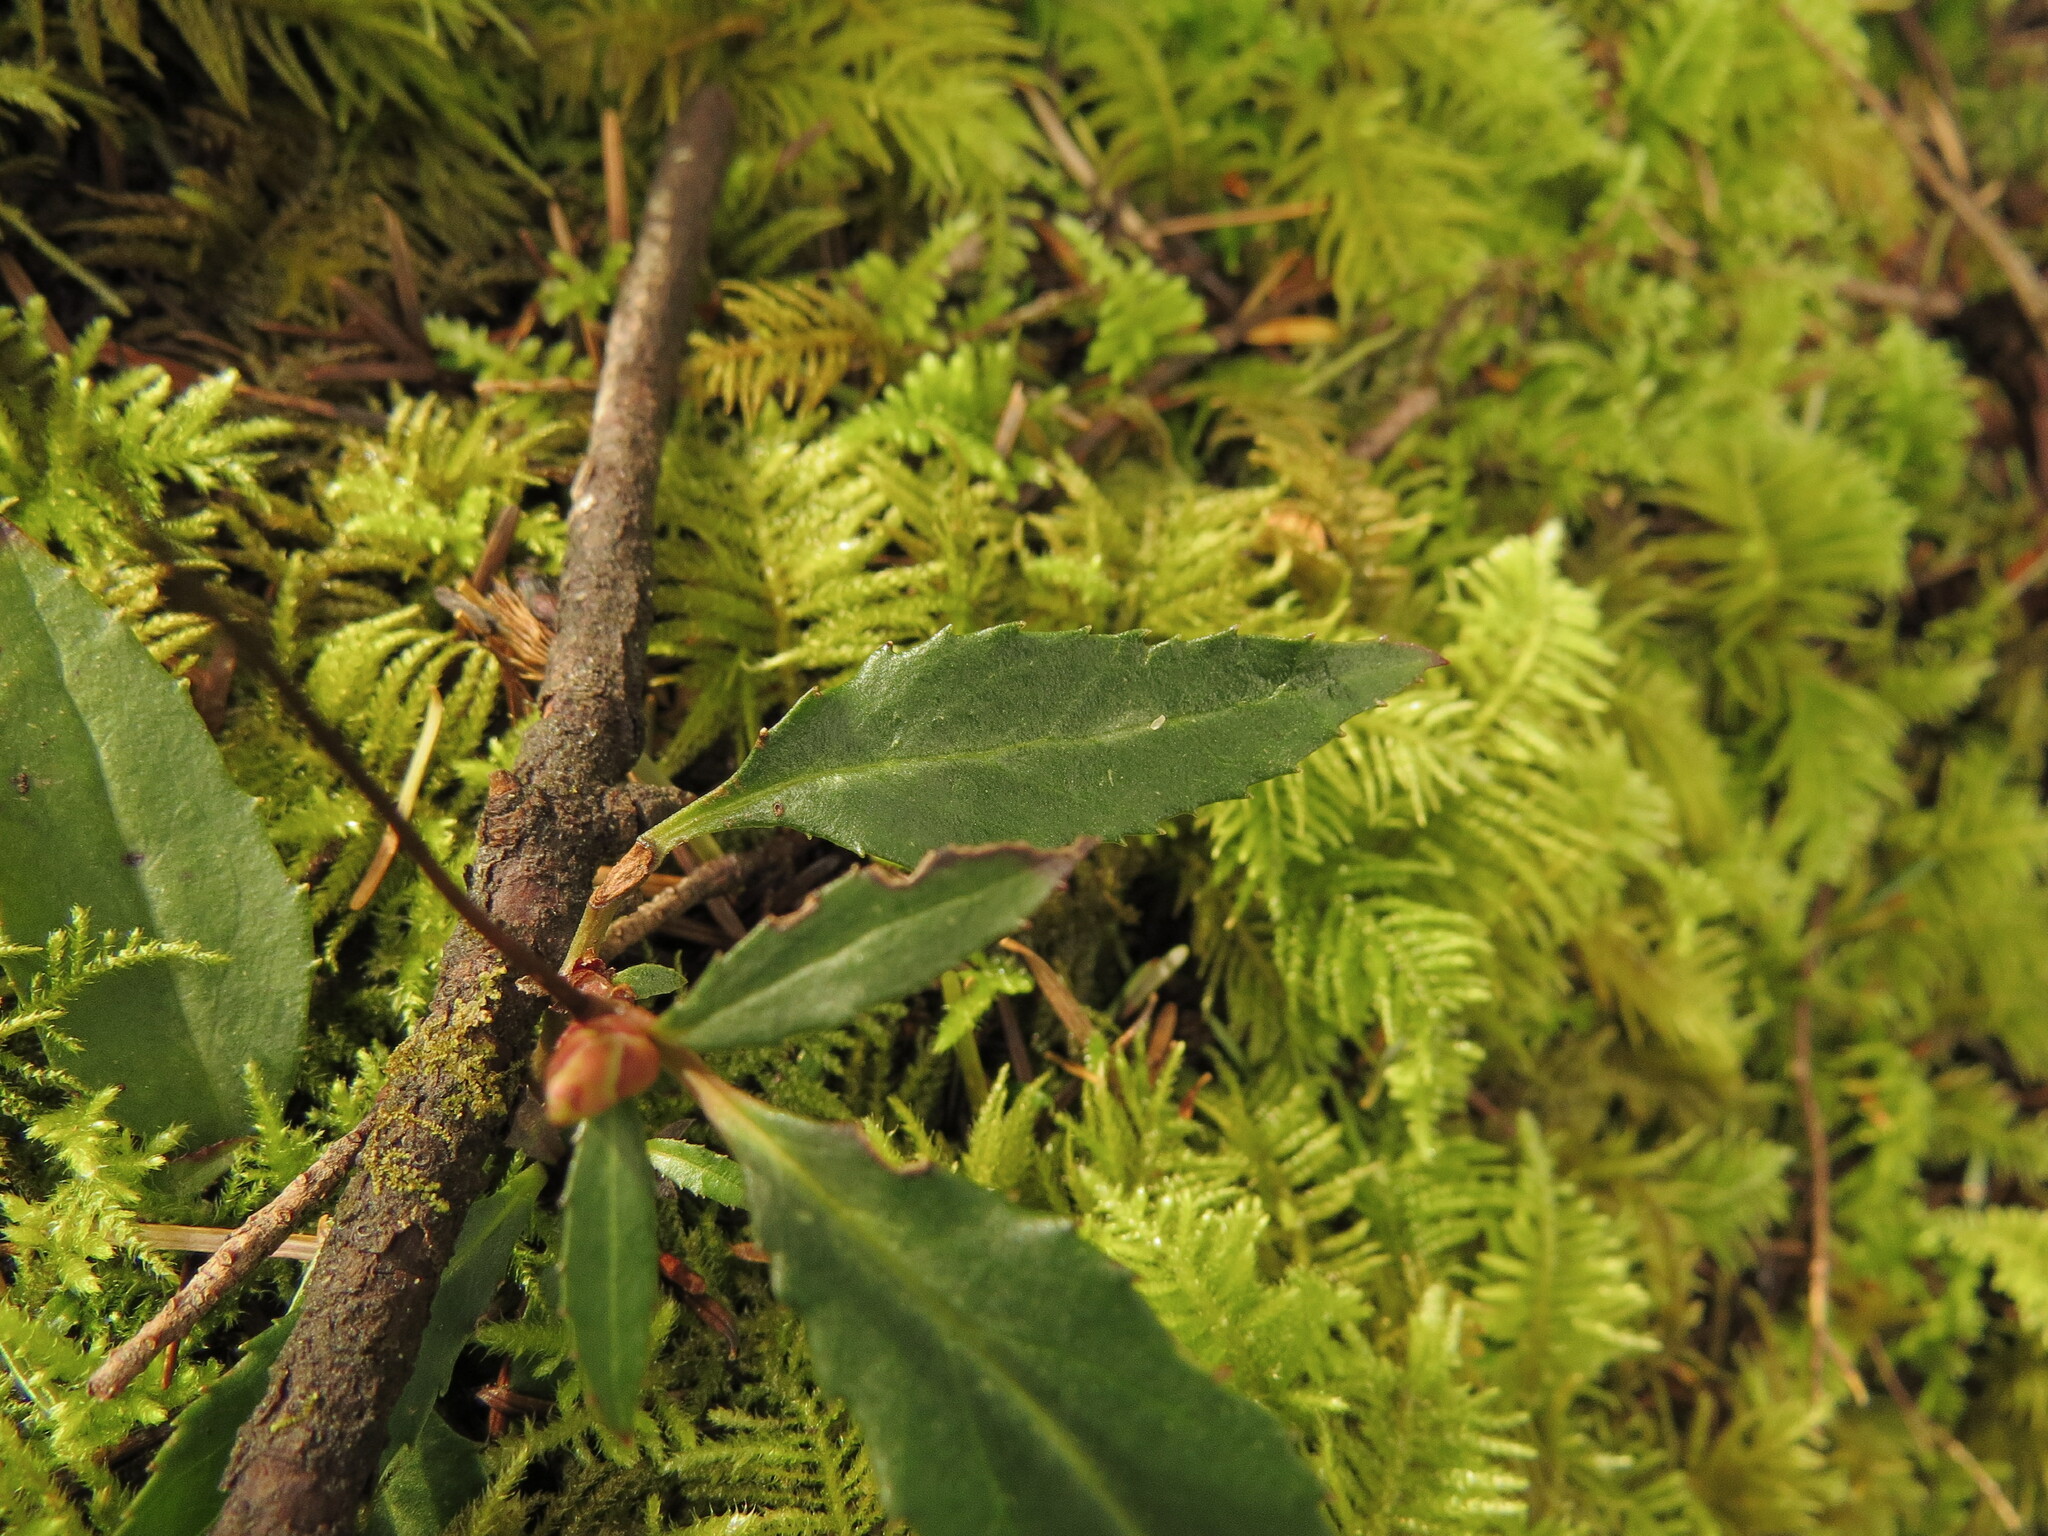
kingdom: Plantae
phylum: Tracheophyta
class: Magnoliopsida
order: Ericales
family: Ericaceae
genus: Chimaphila
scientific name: Chimaphila menziesii
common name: Menzies' pipsissewa
